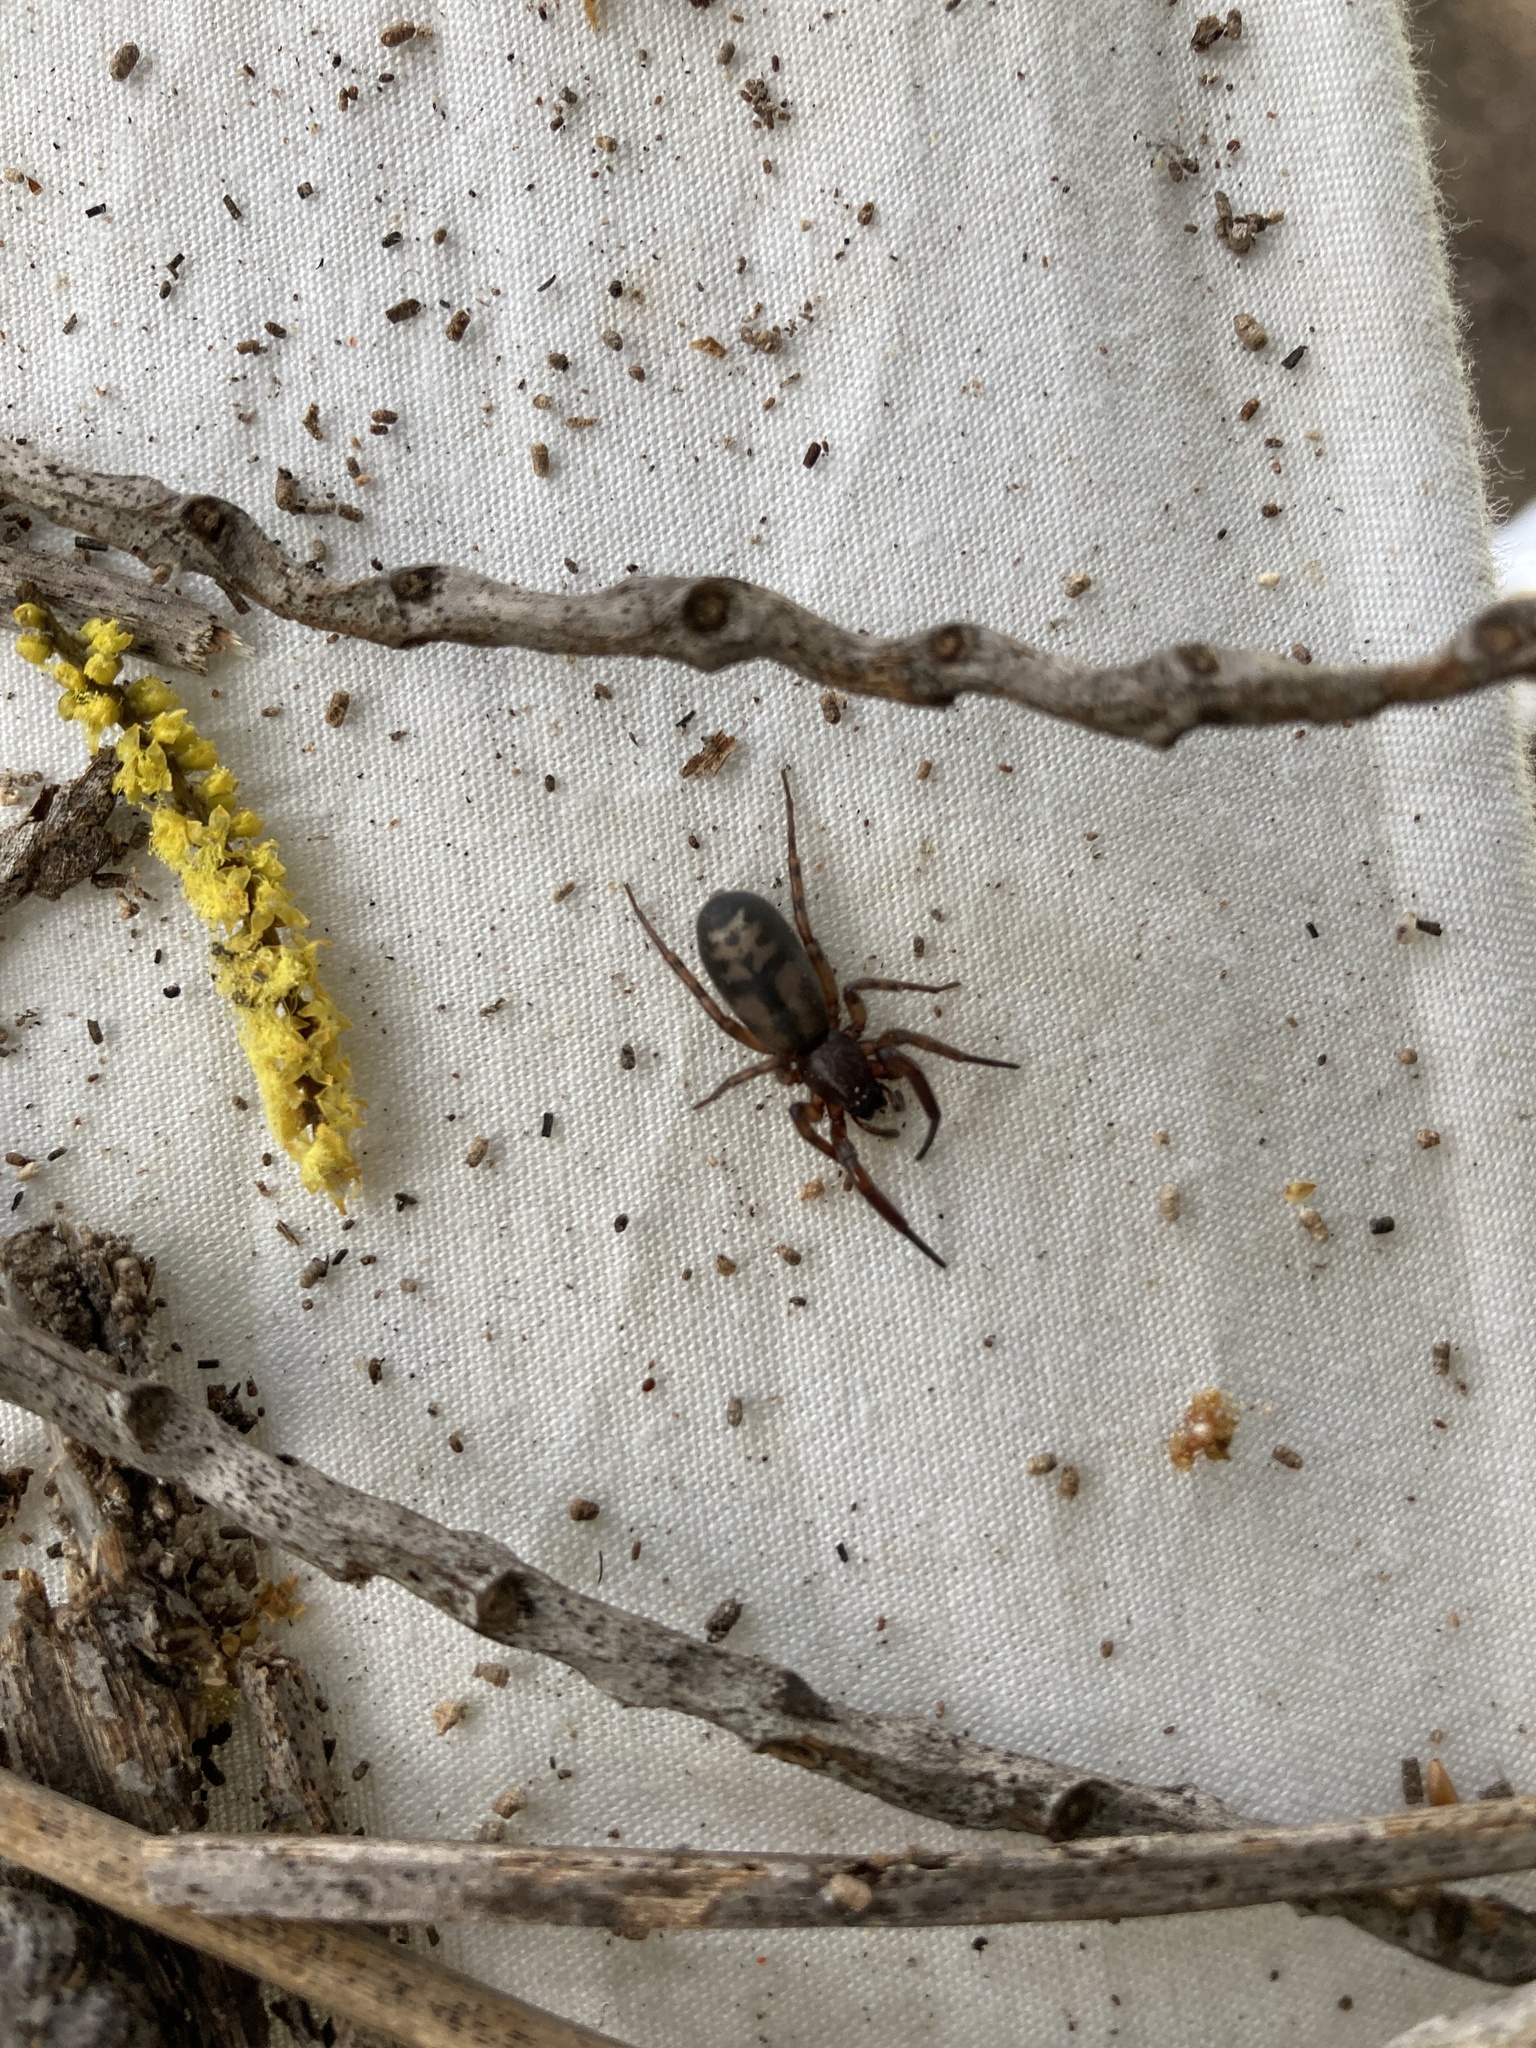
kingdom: Animalia
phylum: Arthropoda
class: Arachnida
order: Araneae
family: Gnaphosidae
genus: Intruda
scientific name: Intruda signata
